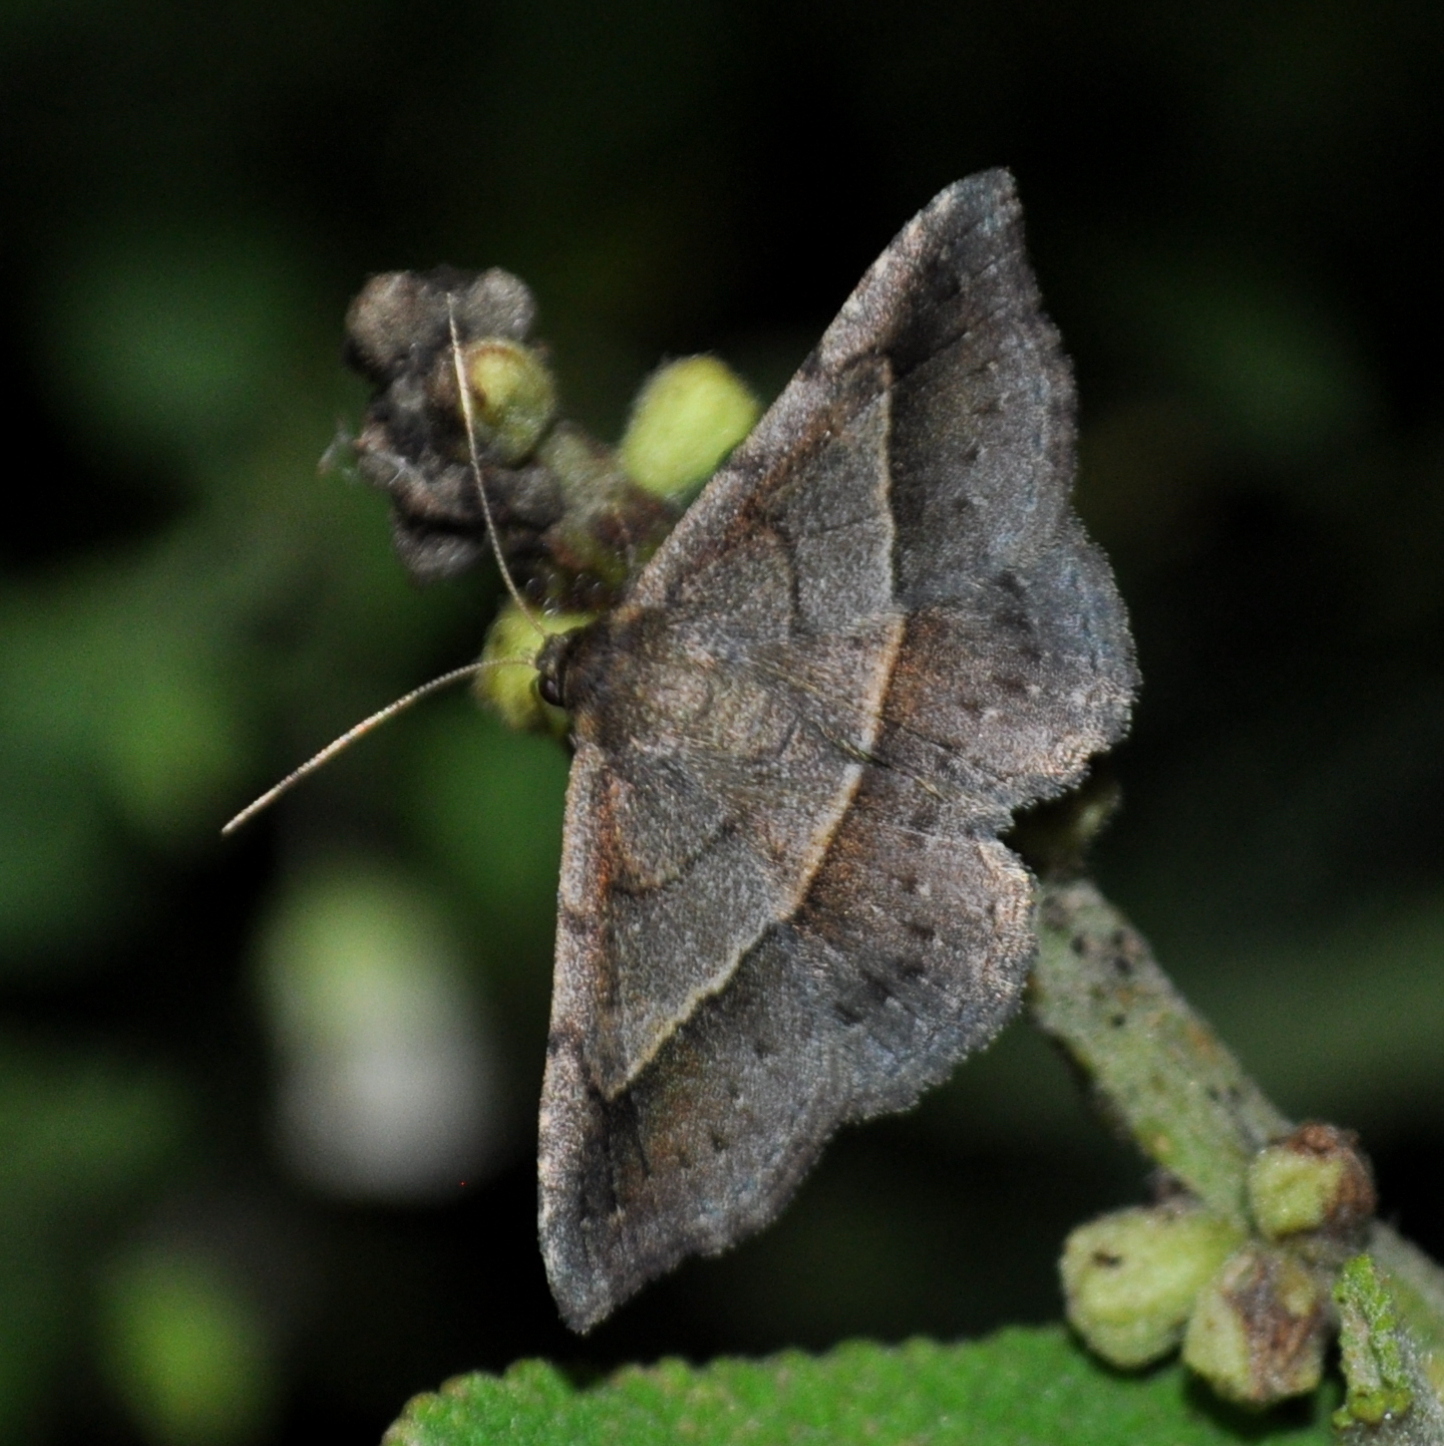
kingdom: Animalia
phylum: Arthropoda
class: Insecta
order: Lepidoptera
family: Erebidae
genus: Coenobela
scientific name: Coenobela joha
